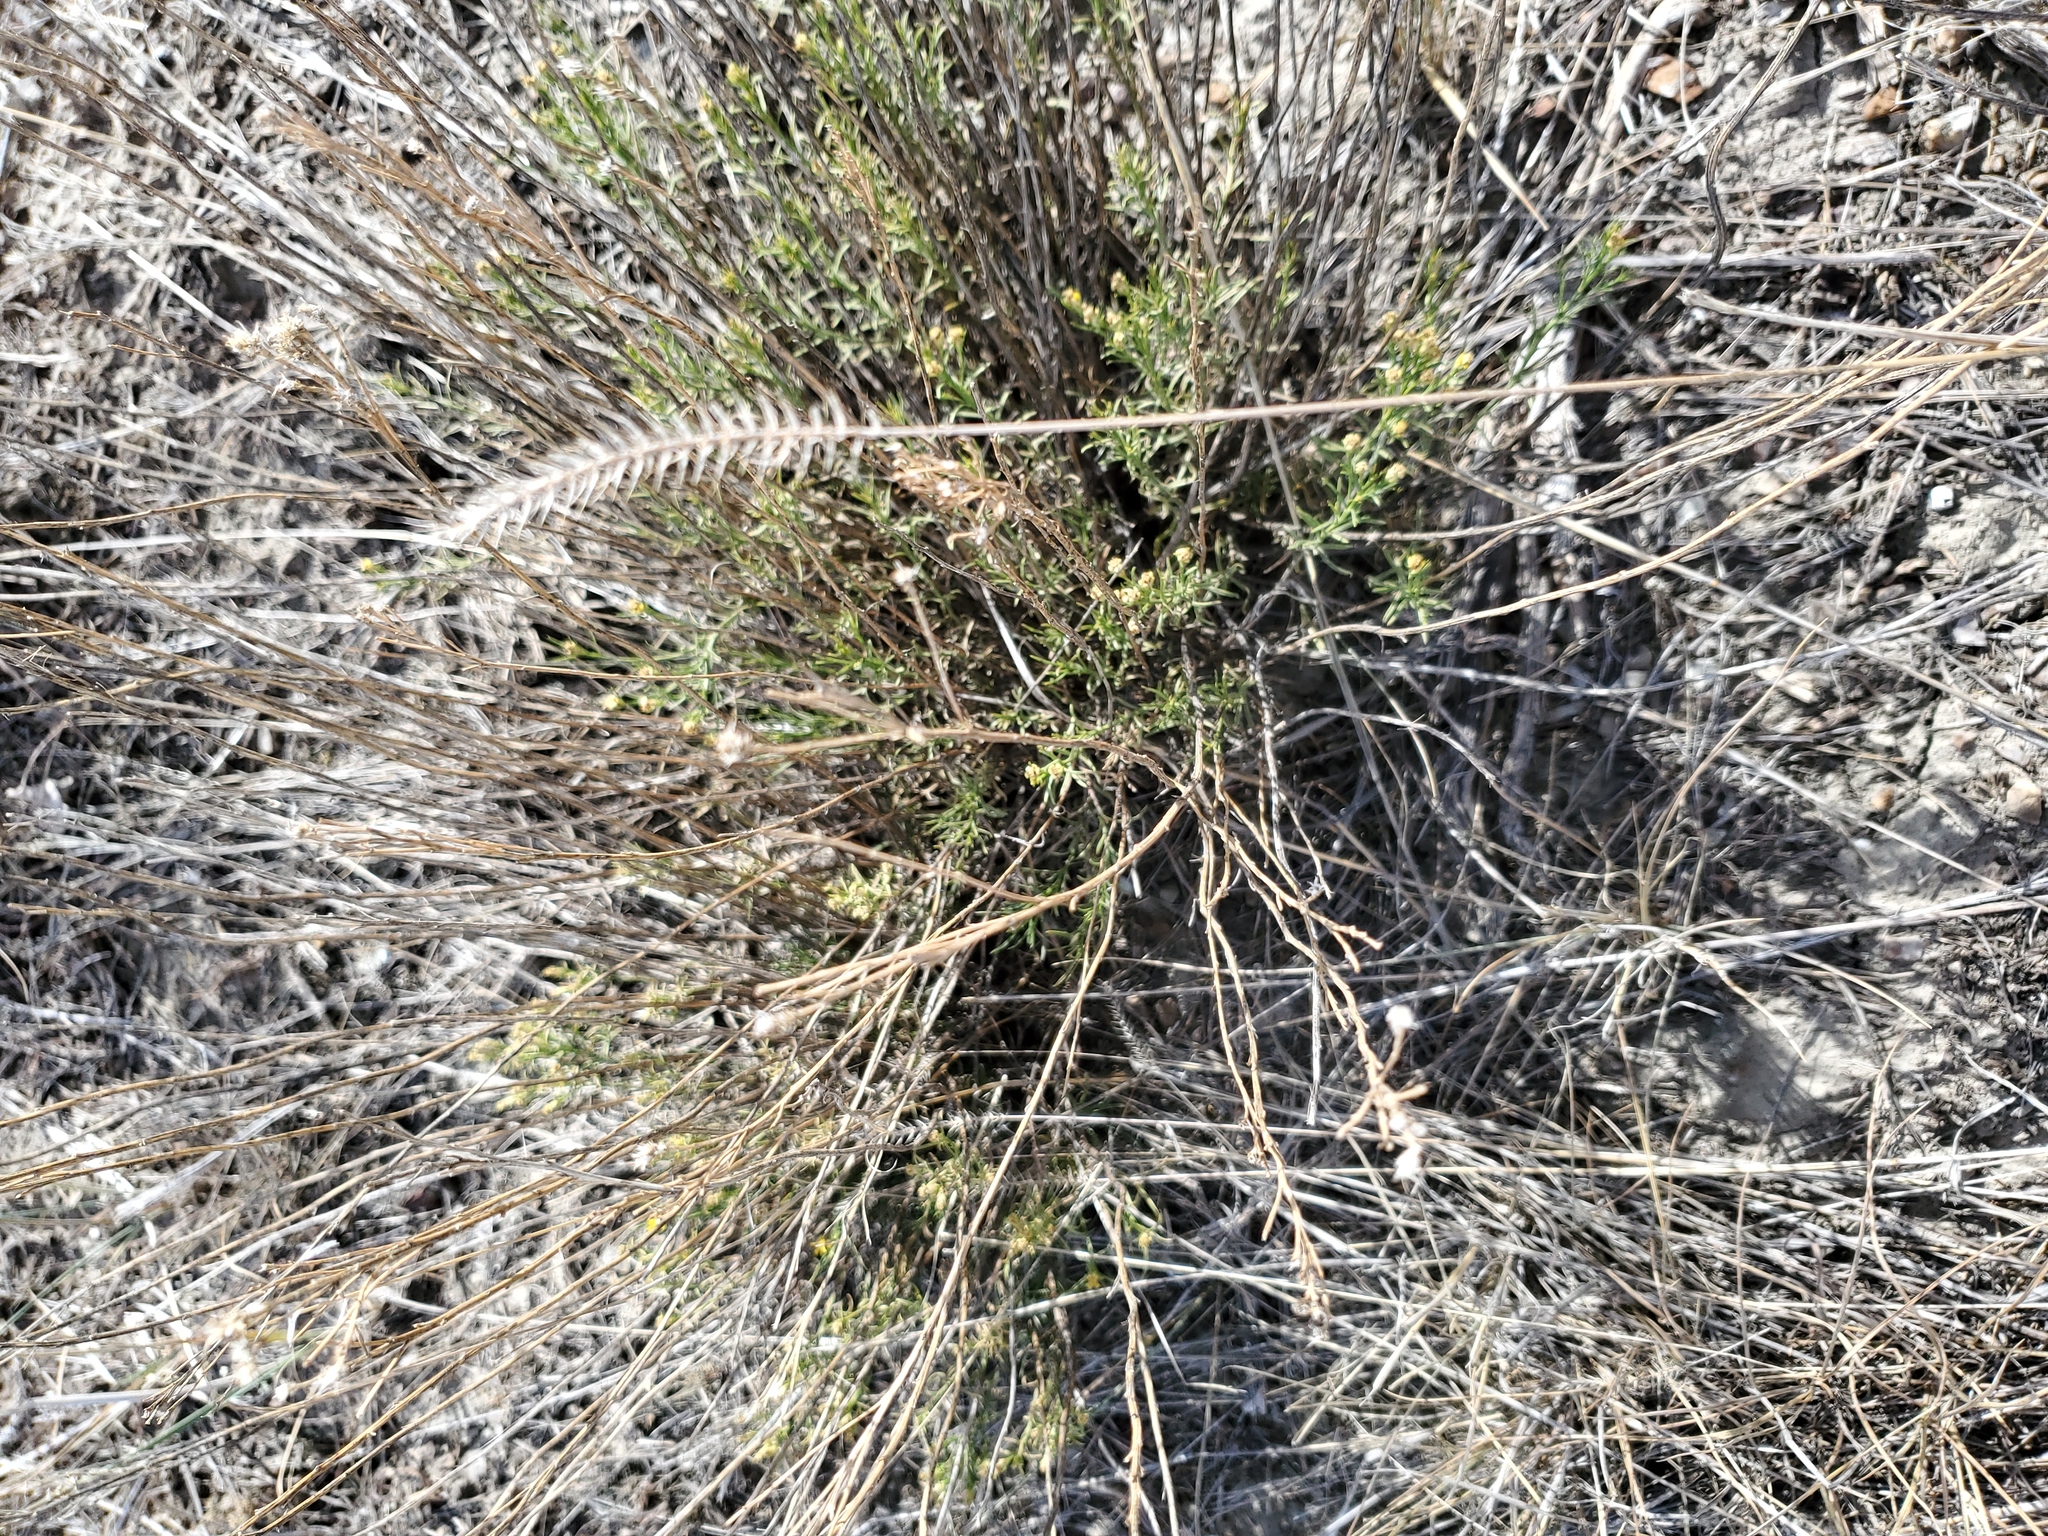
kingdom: Plantae
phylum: Tracheophyta
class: Liliopsida
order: Poales
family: Poaceae
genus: Agropyron
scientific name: Agropyron cristatum
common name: Crested wheatgrass
